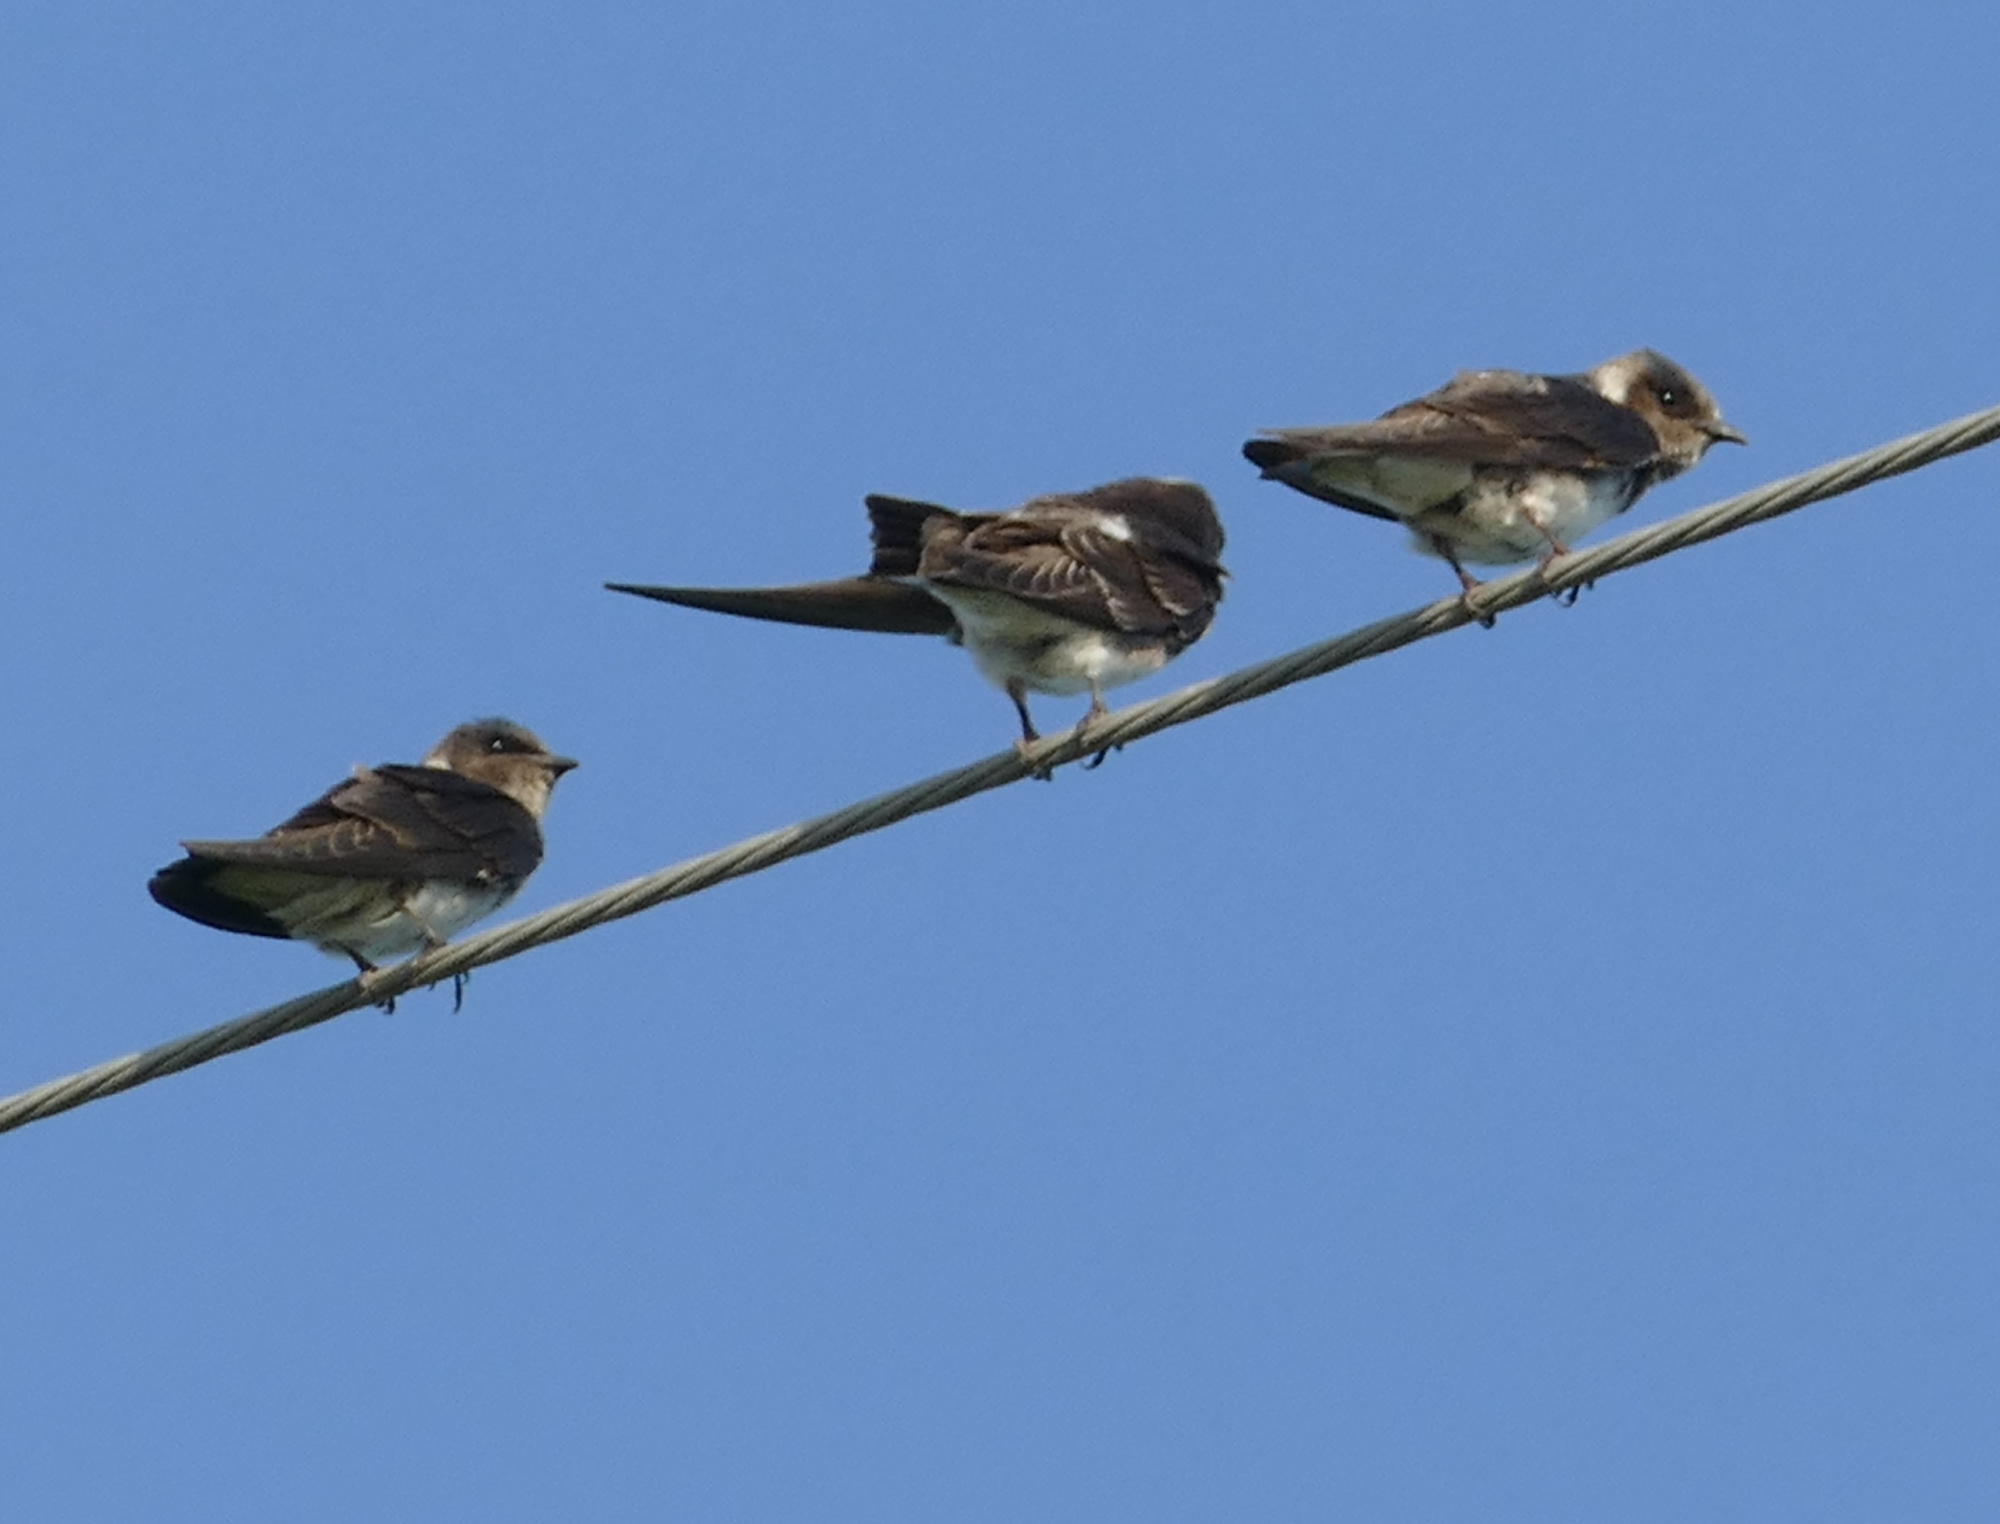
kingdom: Animalia
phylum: Chordata
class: Aves
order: Passeriformes
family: Hirundinidae
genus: Progne
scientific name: Progne subis
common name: Purple martin
